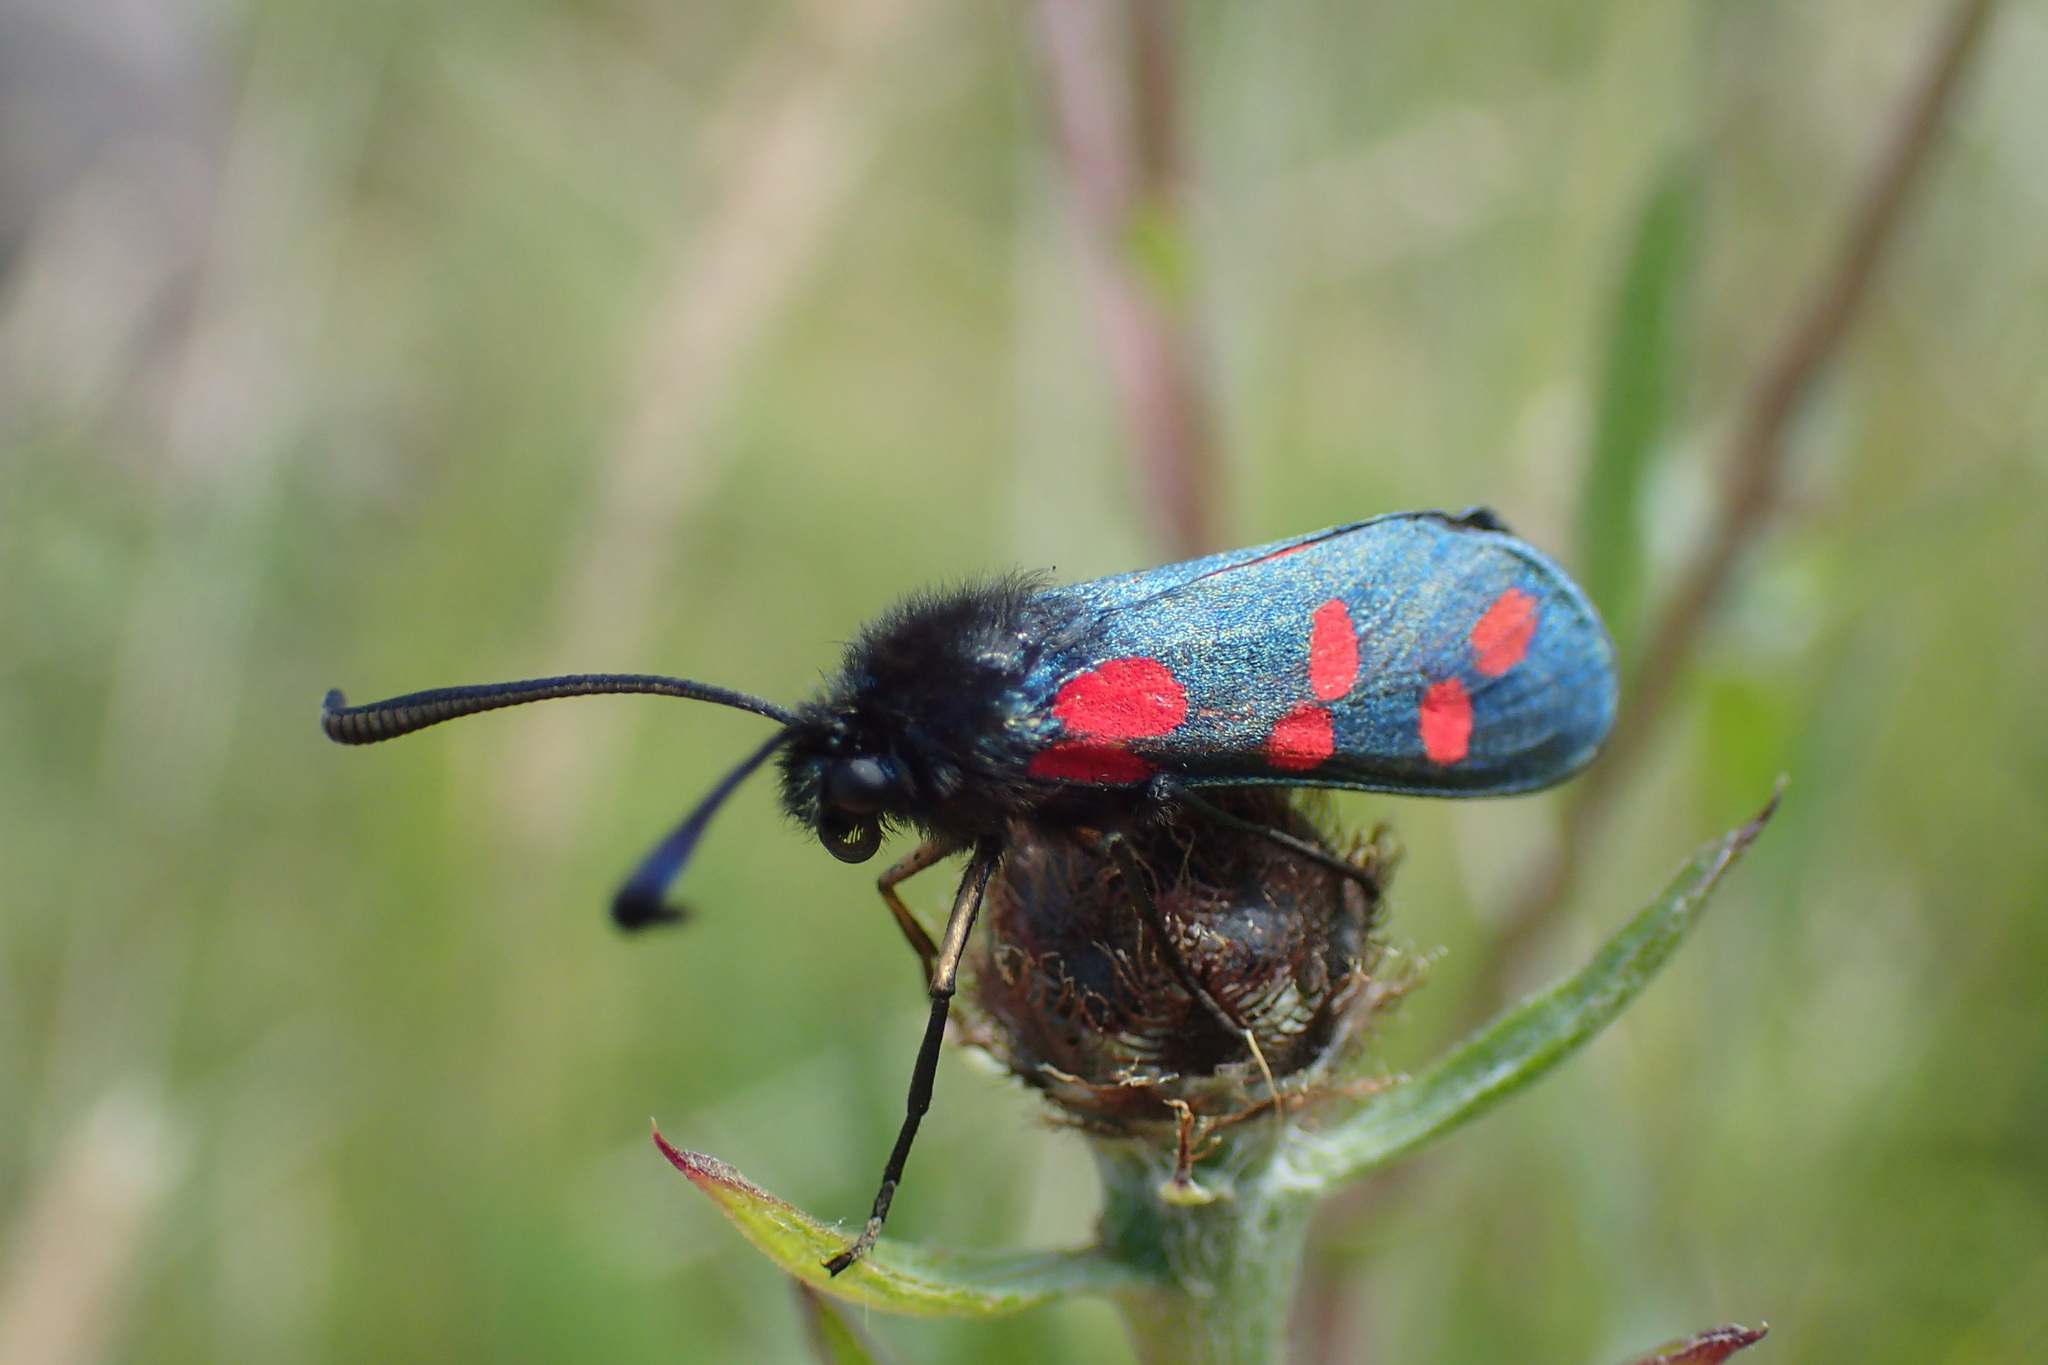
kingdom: Animalia
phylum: Arthropoda
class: Insecta
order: Lepidoptera
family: Zygaenidae
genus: Zygaena
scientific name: Zygaena filipendulae
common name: Six-spot burnet
